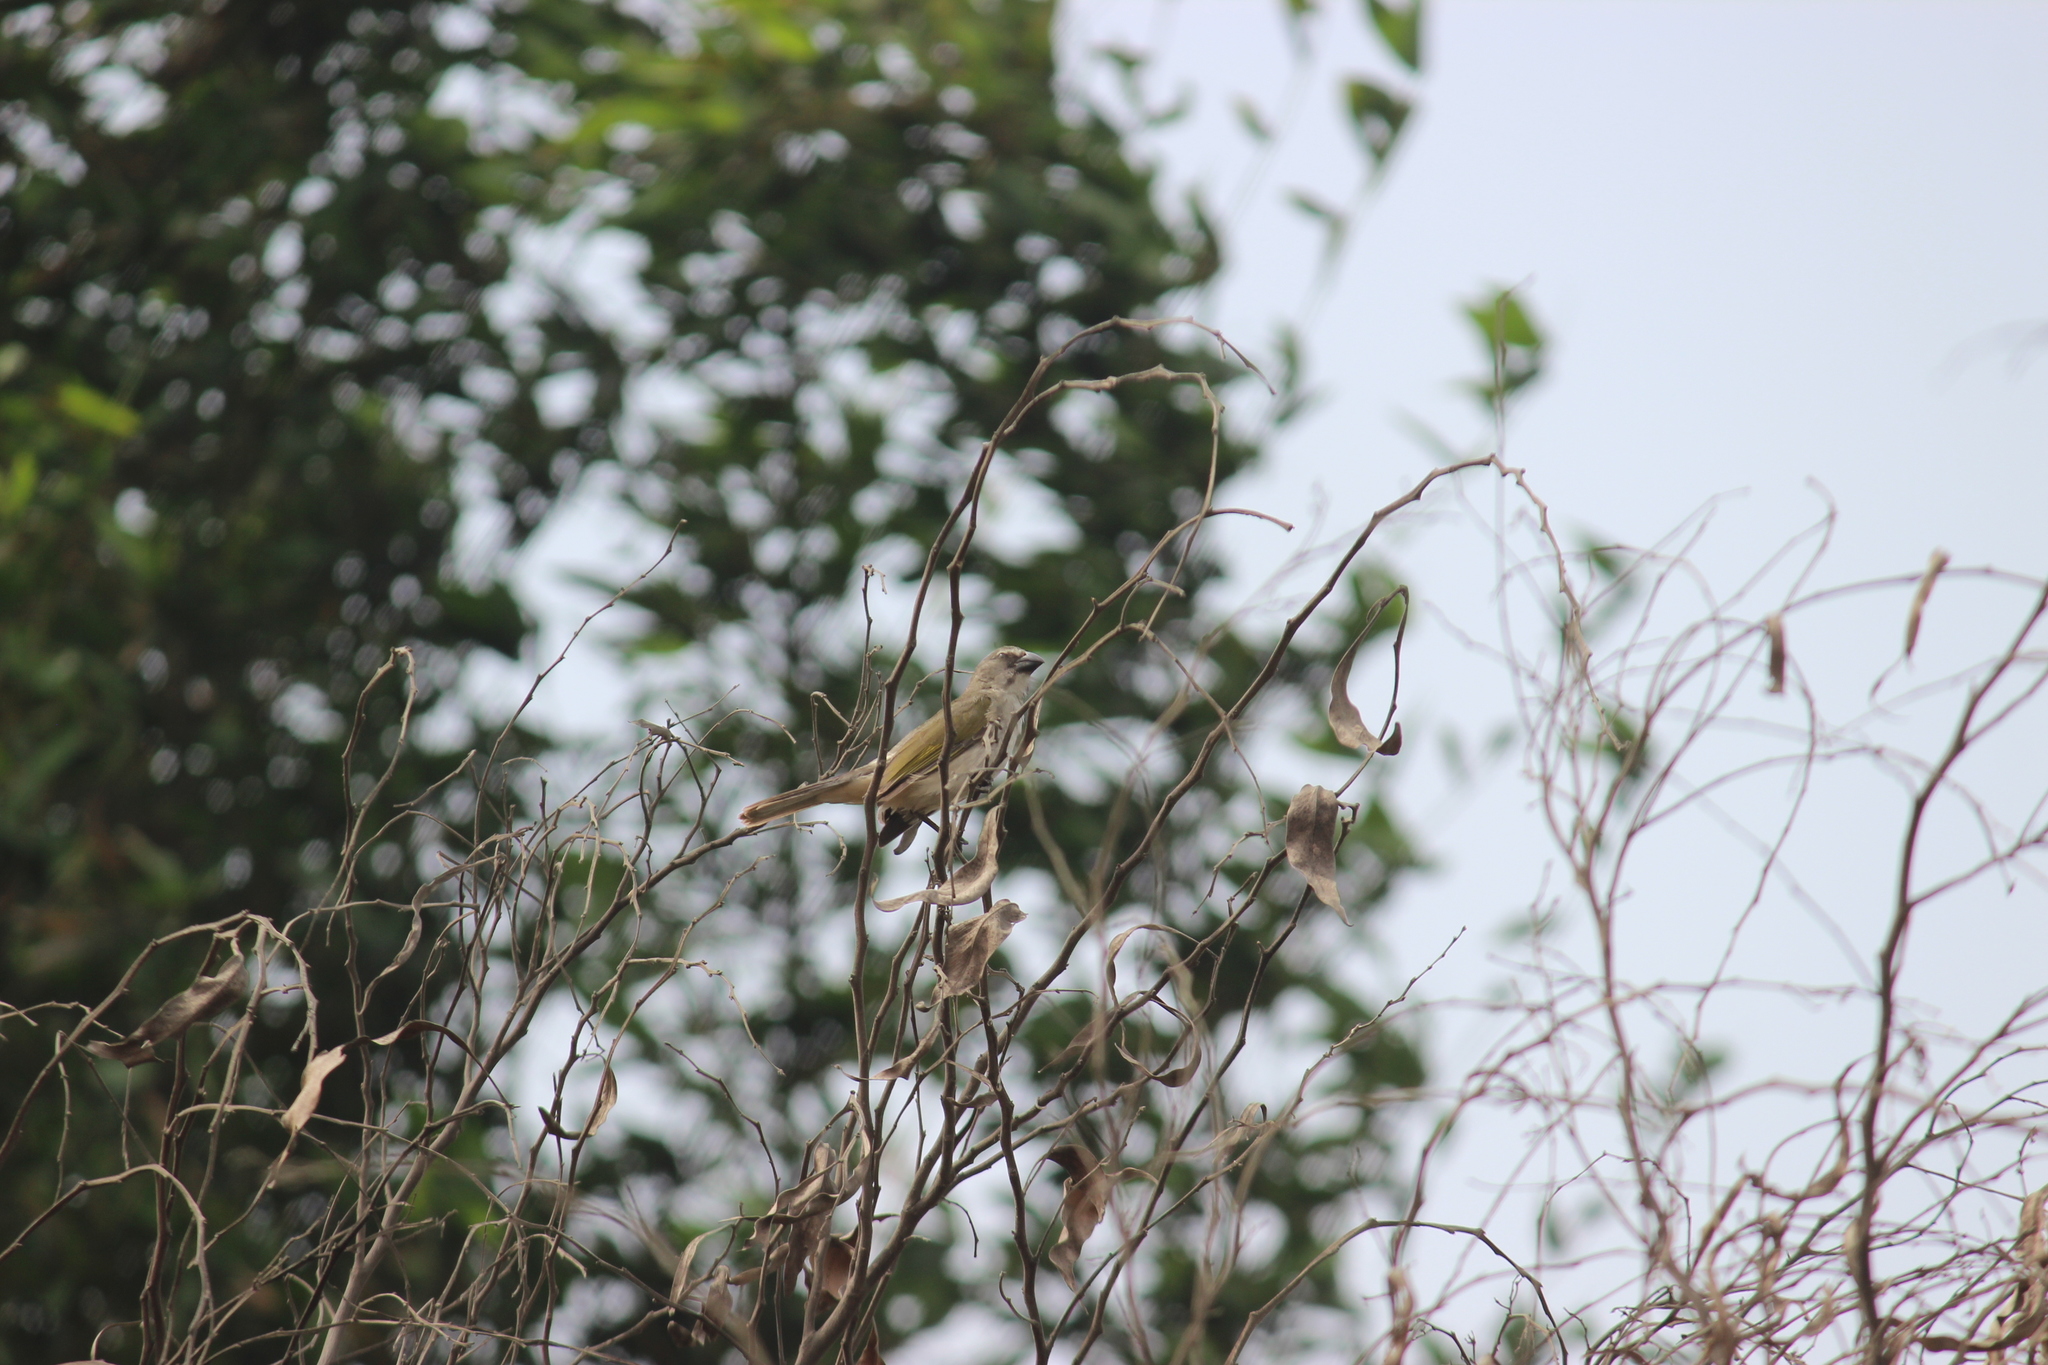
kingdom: Animalia
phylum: Chordata
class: Aves
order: Passeriformes
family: Thraupidae
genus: Saltator
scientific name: Saltator striatipectus
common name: Streaked saltator
